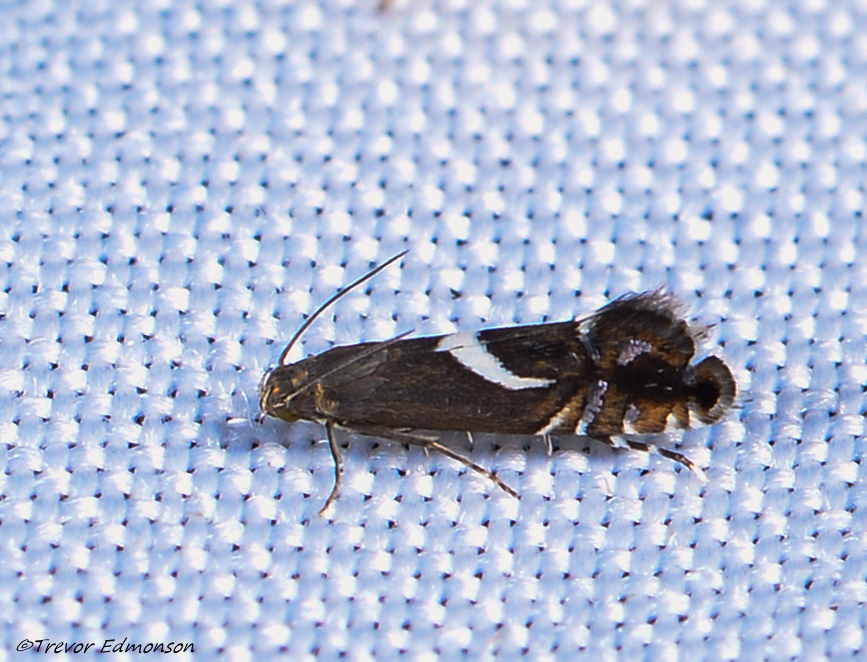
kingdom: Animalia
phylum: Arthropoda
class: Insecta
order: Lepidoptera
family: Glyphipterigidae
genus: Glyphipterix
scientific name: Glyphipterix Diploschizia impigritella
